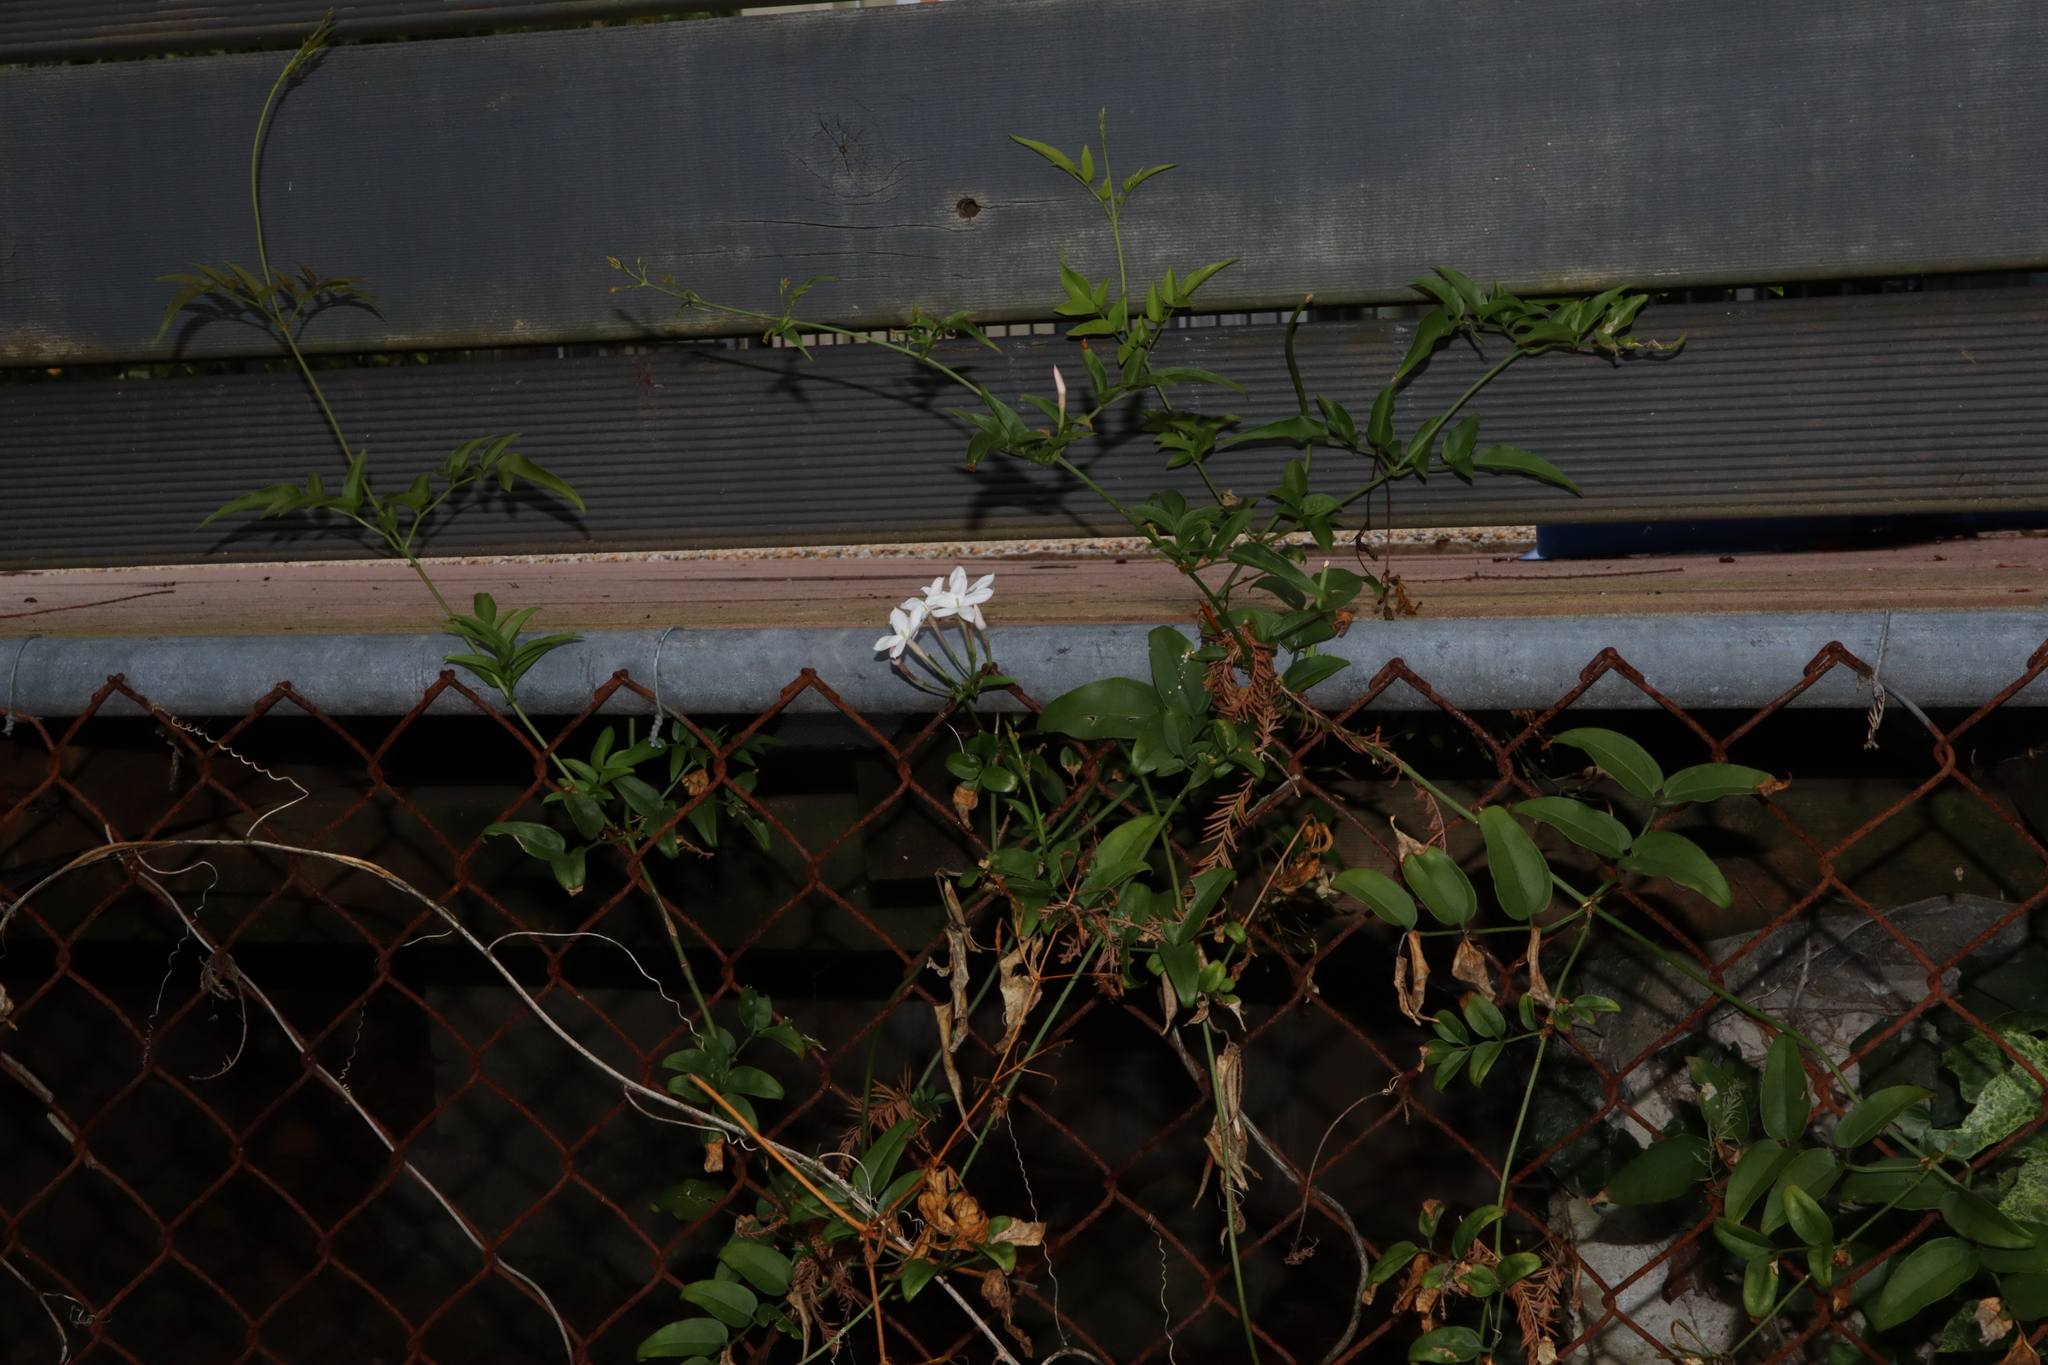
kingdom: Plantae
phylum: Tracheophyta
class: Magnoliopsida
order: Lamiales
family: Oleaceae
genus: Jasminum
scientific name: Jasminum polyanthum
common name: Pink jasmine
